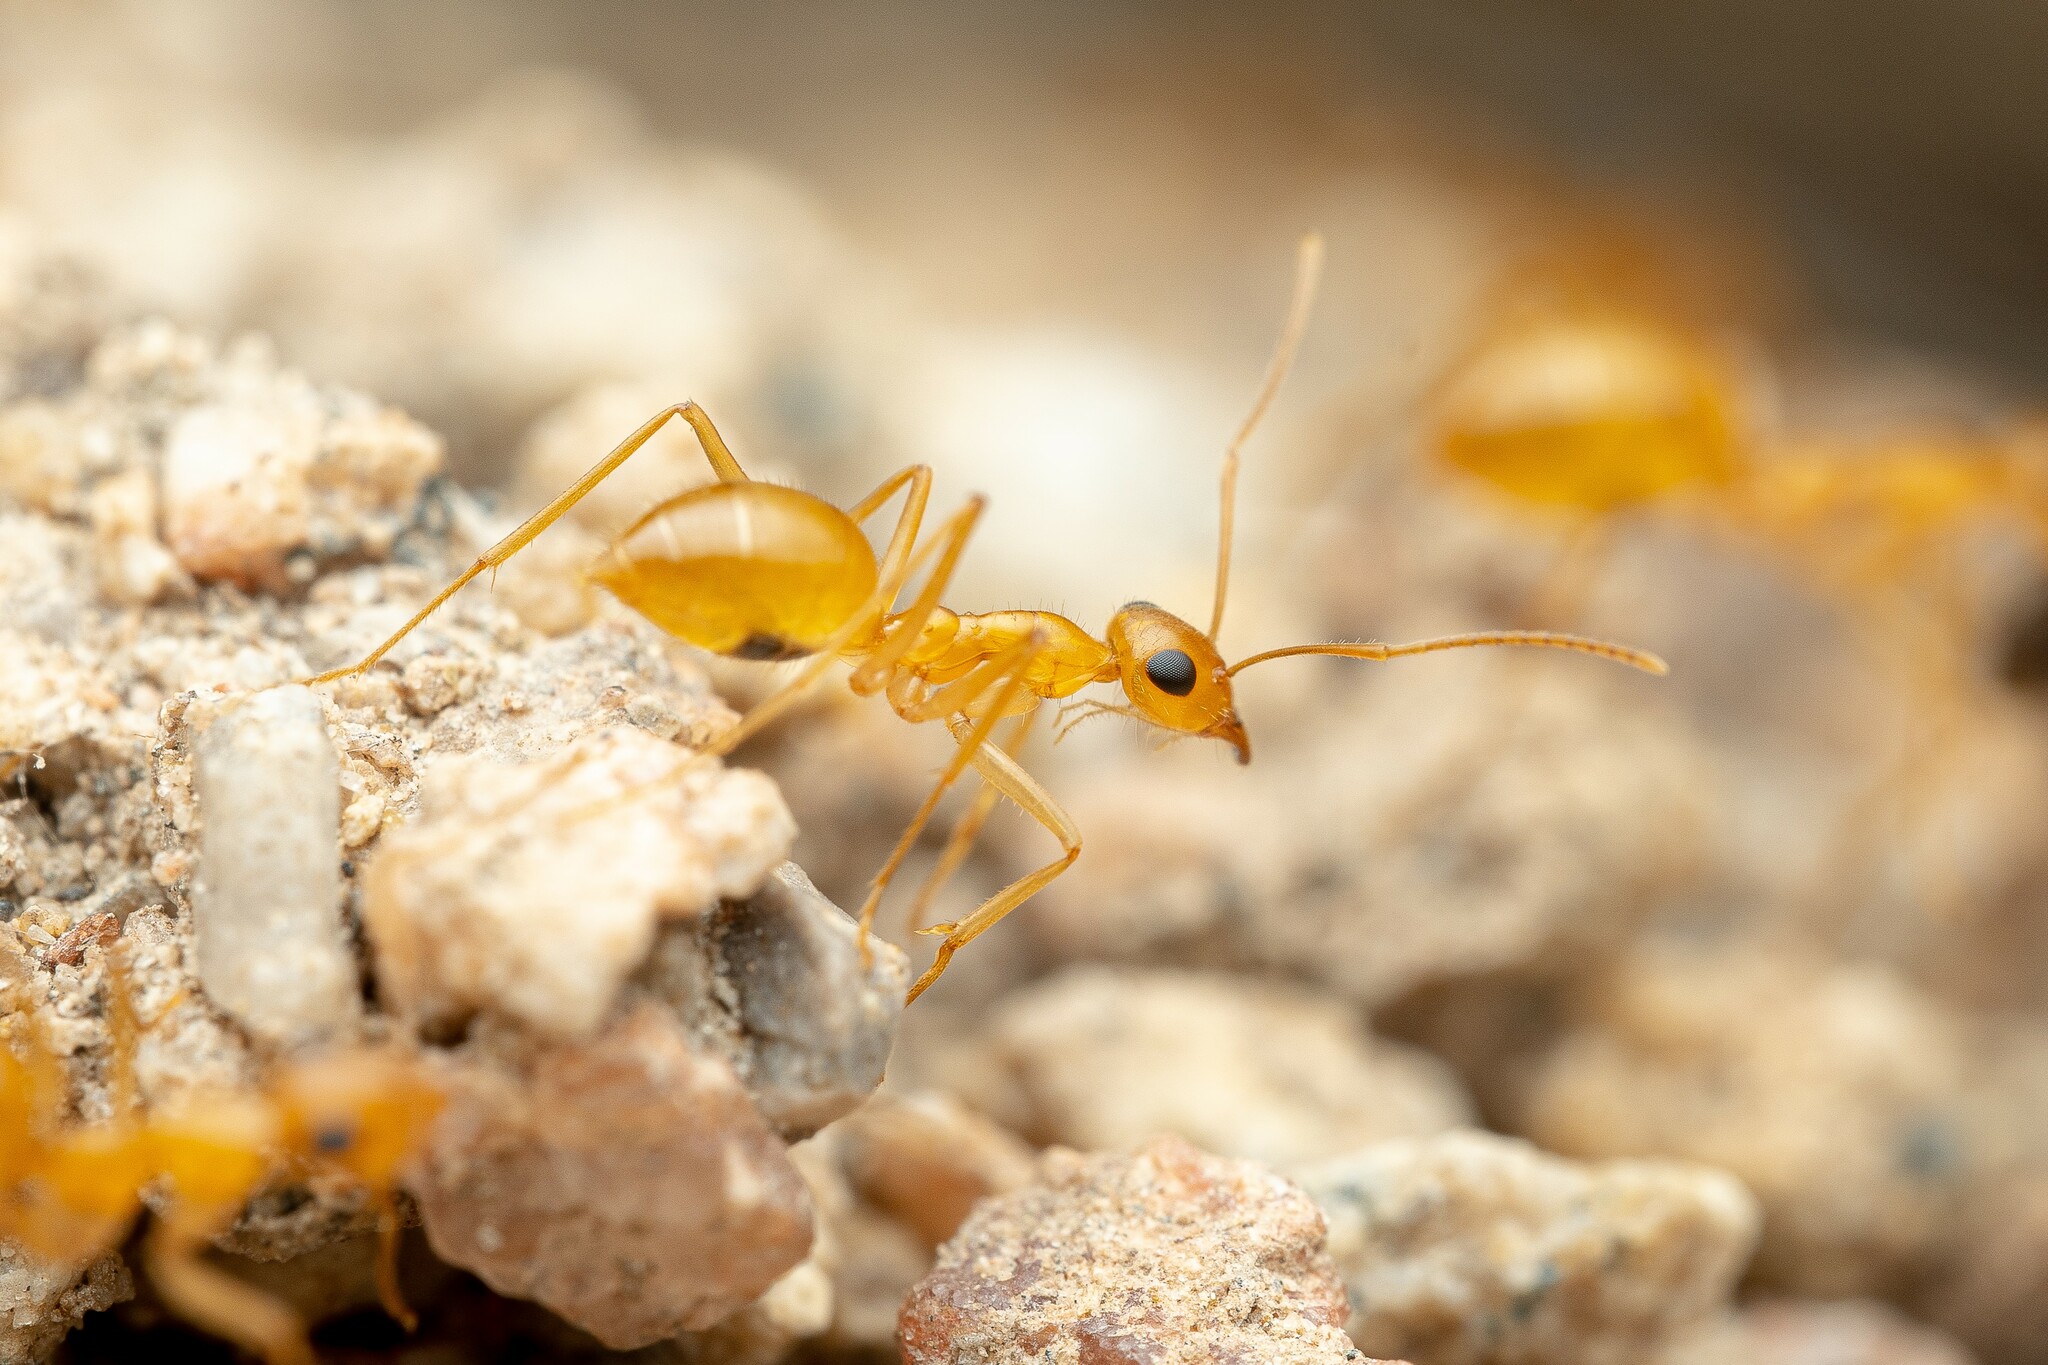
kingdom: Animalia
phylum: Arthropoda
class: Insecta
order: Hymenoptera
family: Formicidae
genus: Myrmecocystus
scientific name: Myrmecocystus navajo
